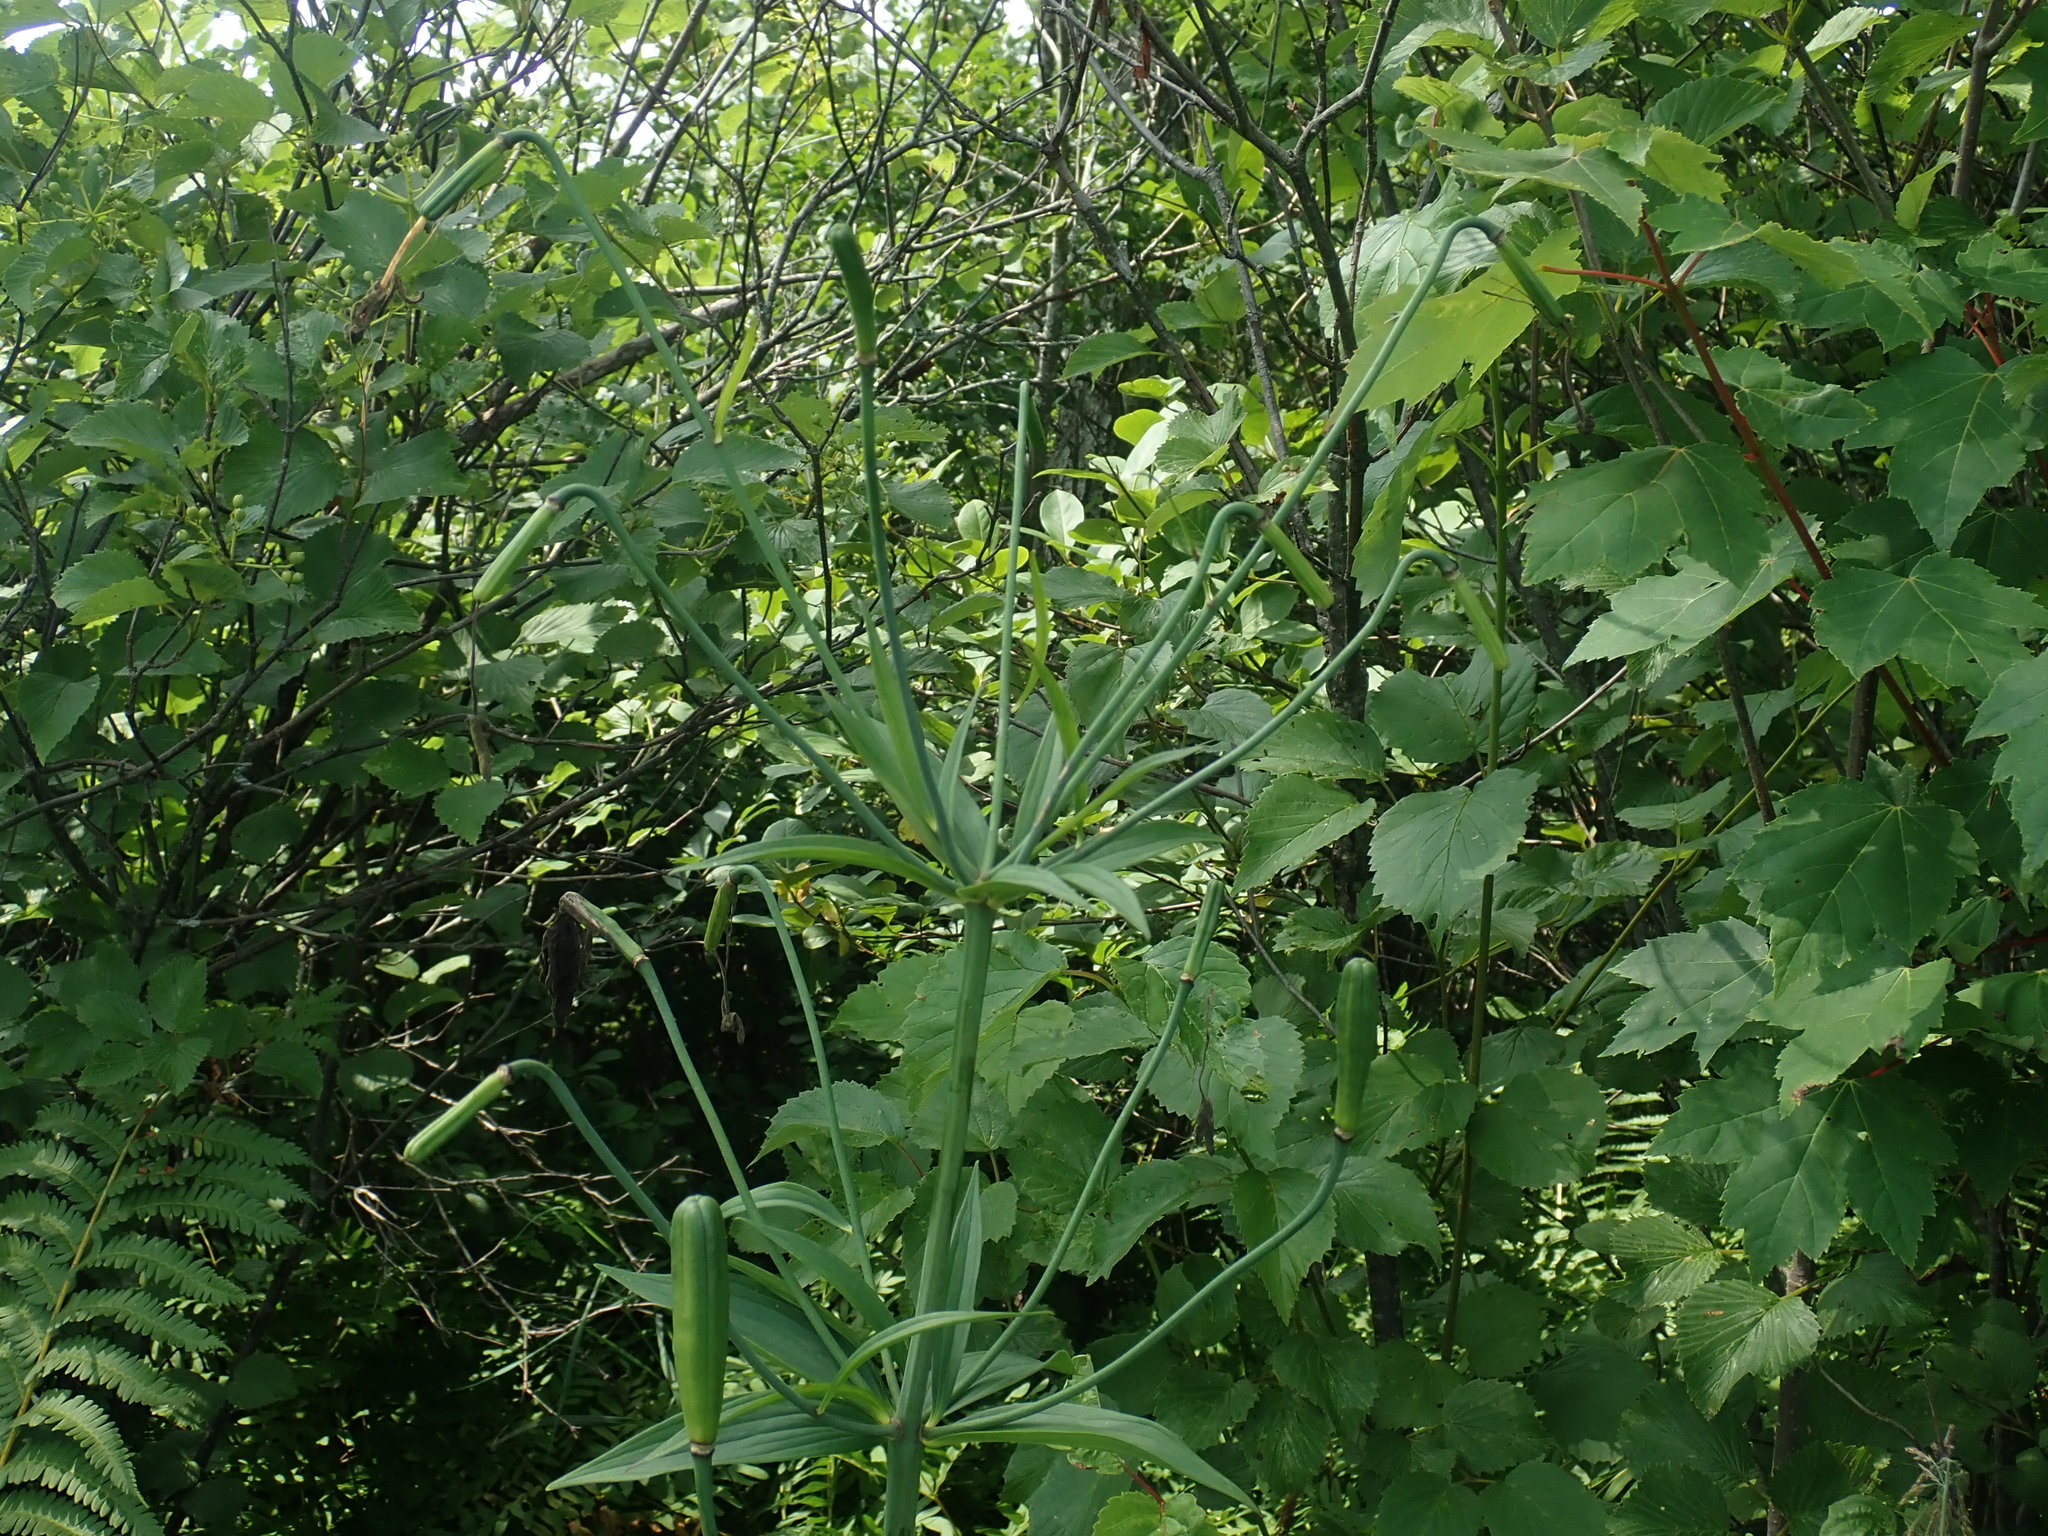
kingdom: Plantae
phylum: Tracheophyta
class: Liliopsida
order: Liliales
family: Liliaceae
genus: Lilium
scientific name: Lilium canadense
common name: Canada lily
